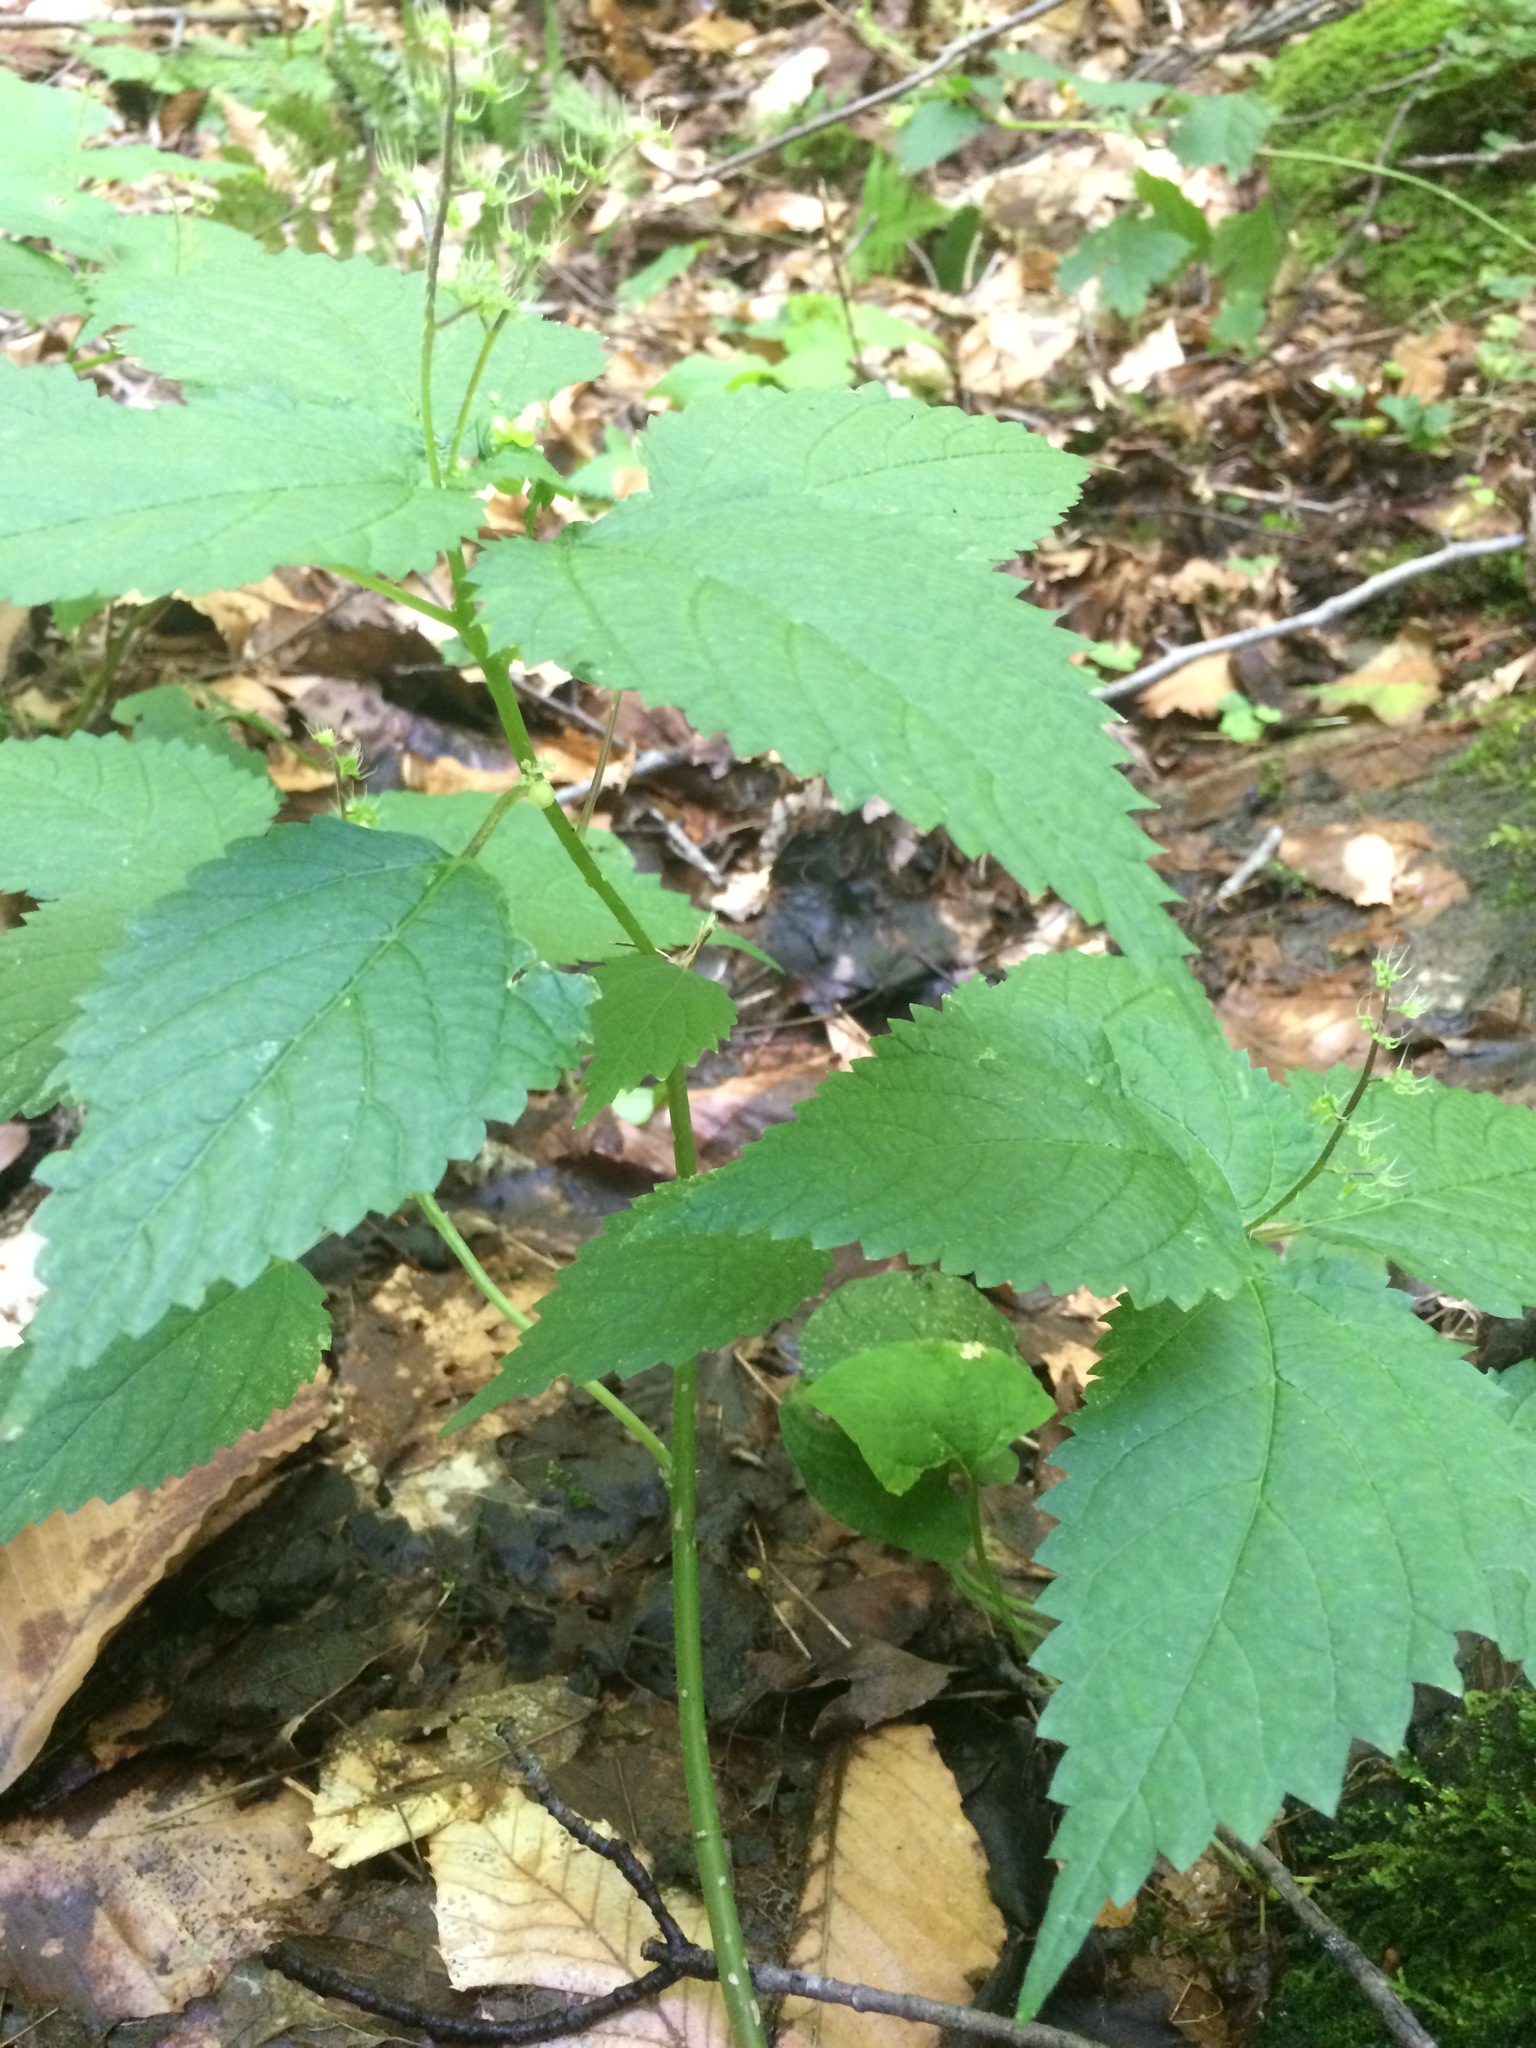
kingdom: Plantae
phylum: Tracheophyta
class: Magnoliopsida
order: Rosales
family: Urticaceae
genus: Laportea
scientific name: Laportea canadensis
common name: Canada nettle
